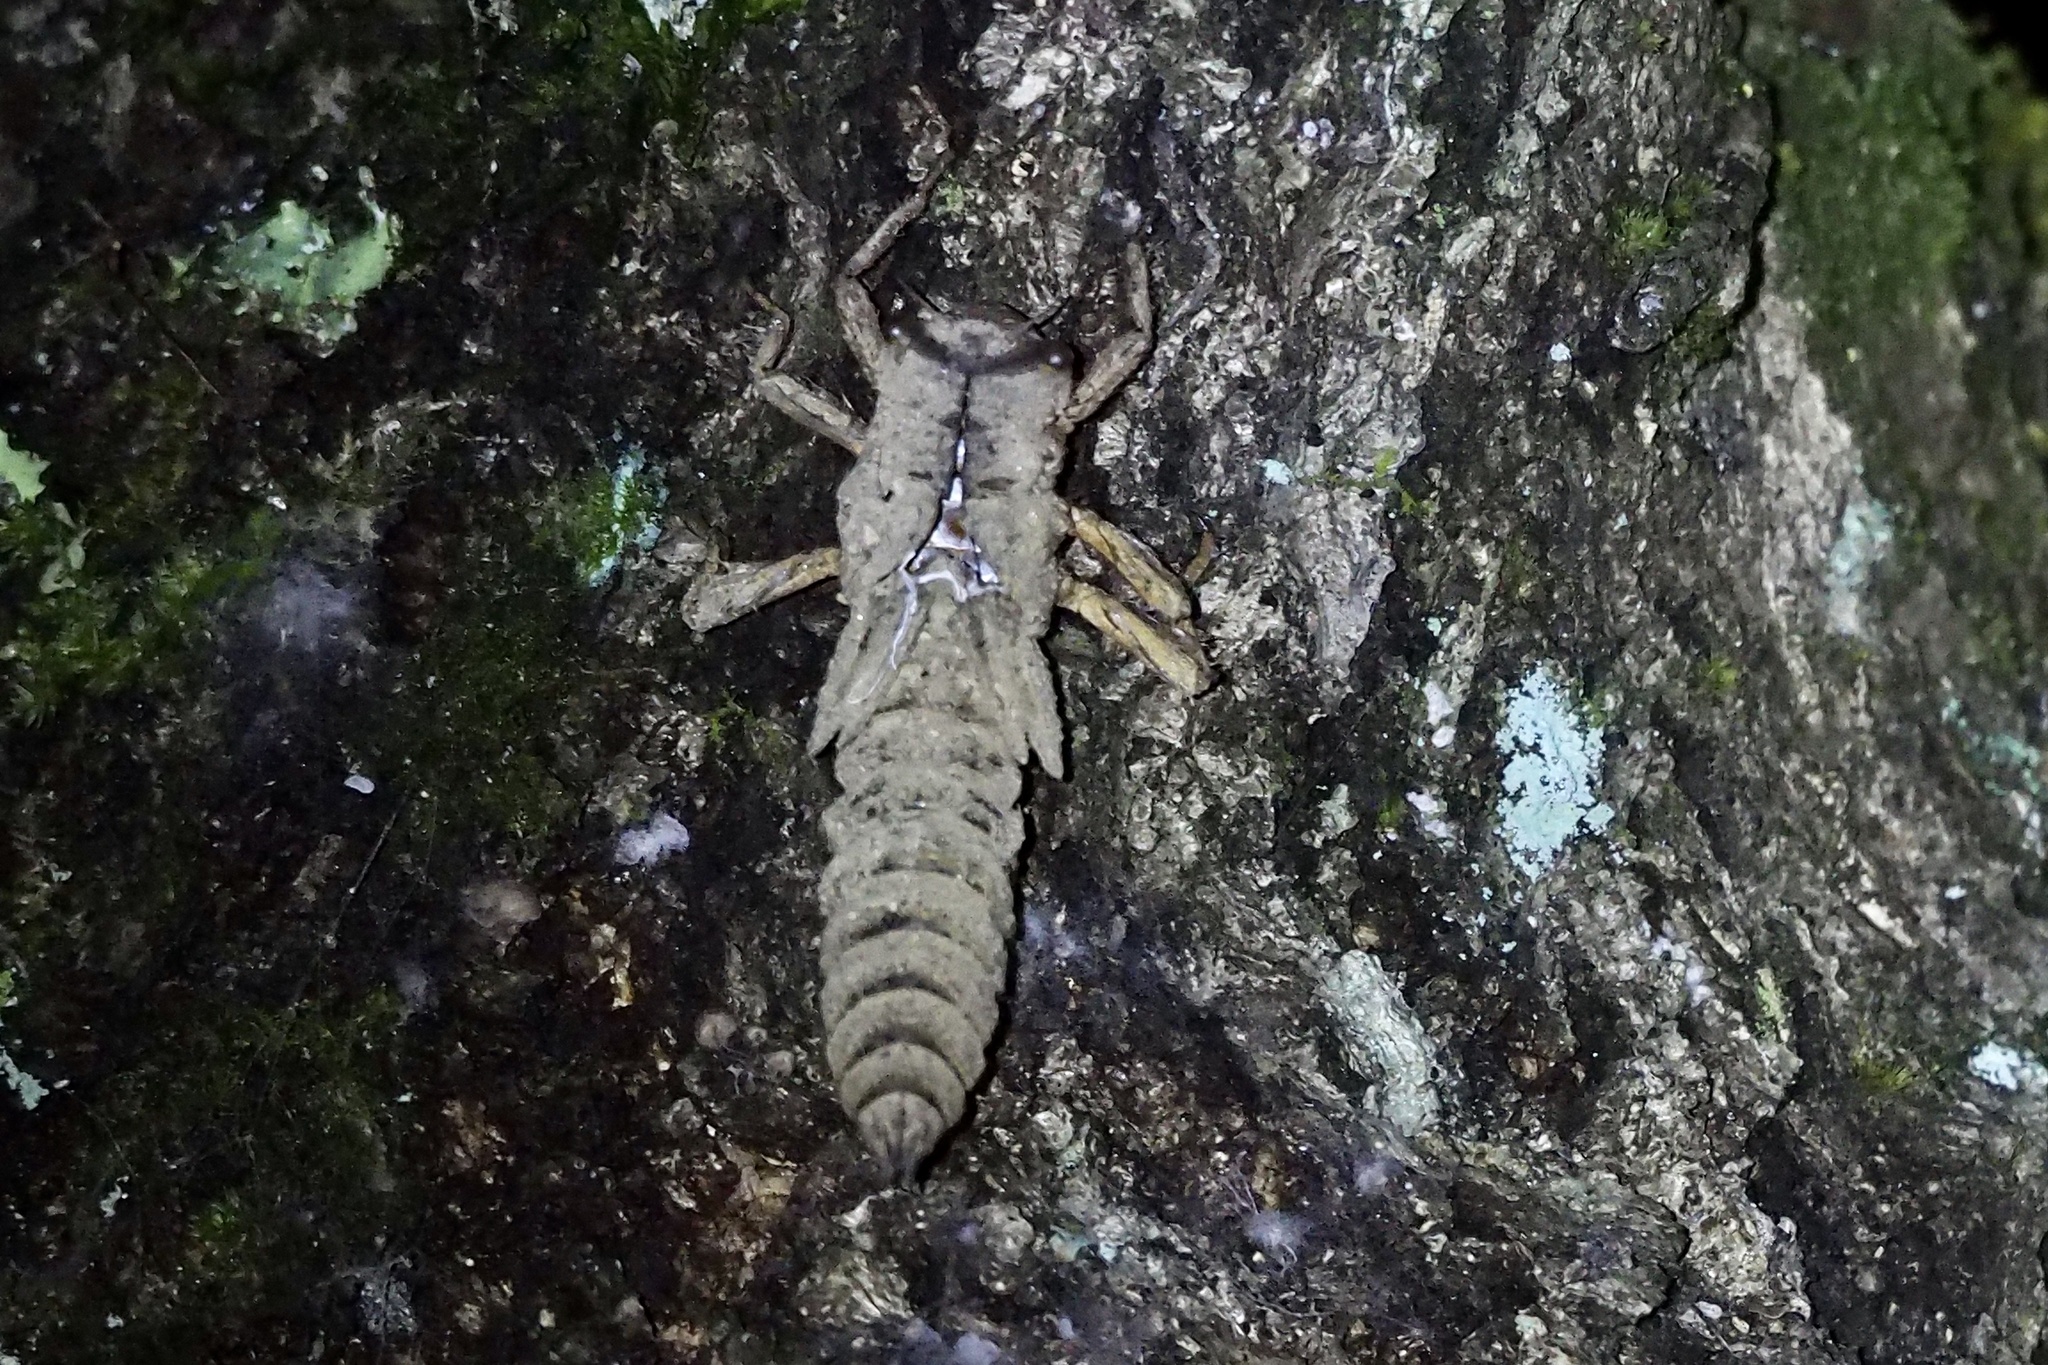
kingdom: Animalia
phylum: Arthropoda
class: Insecta
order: Odonata
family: Cordulegastridae
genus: Anotogaster
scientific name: Anotogaster sieboldii
